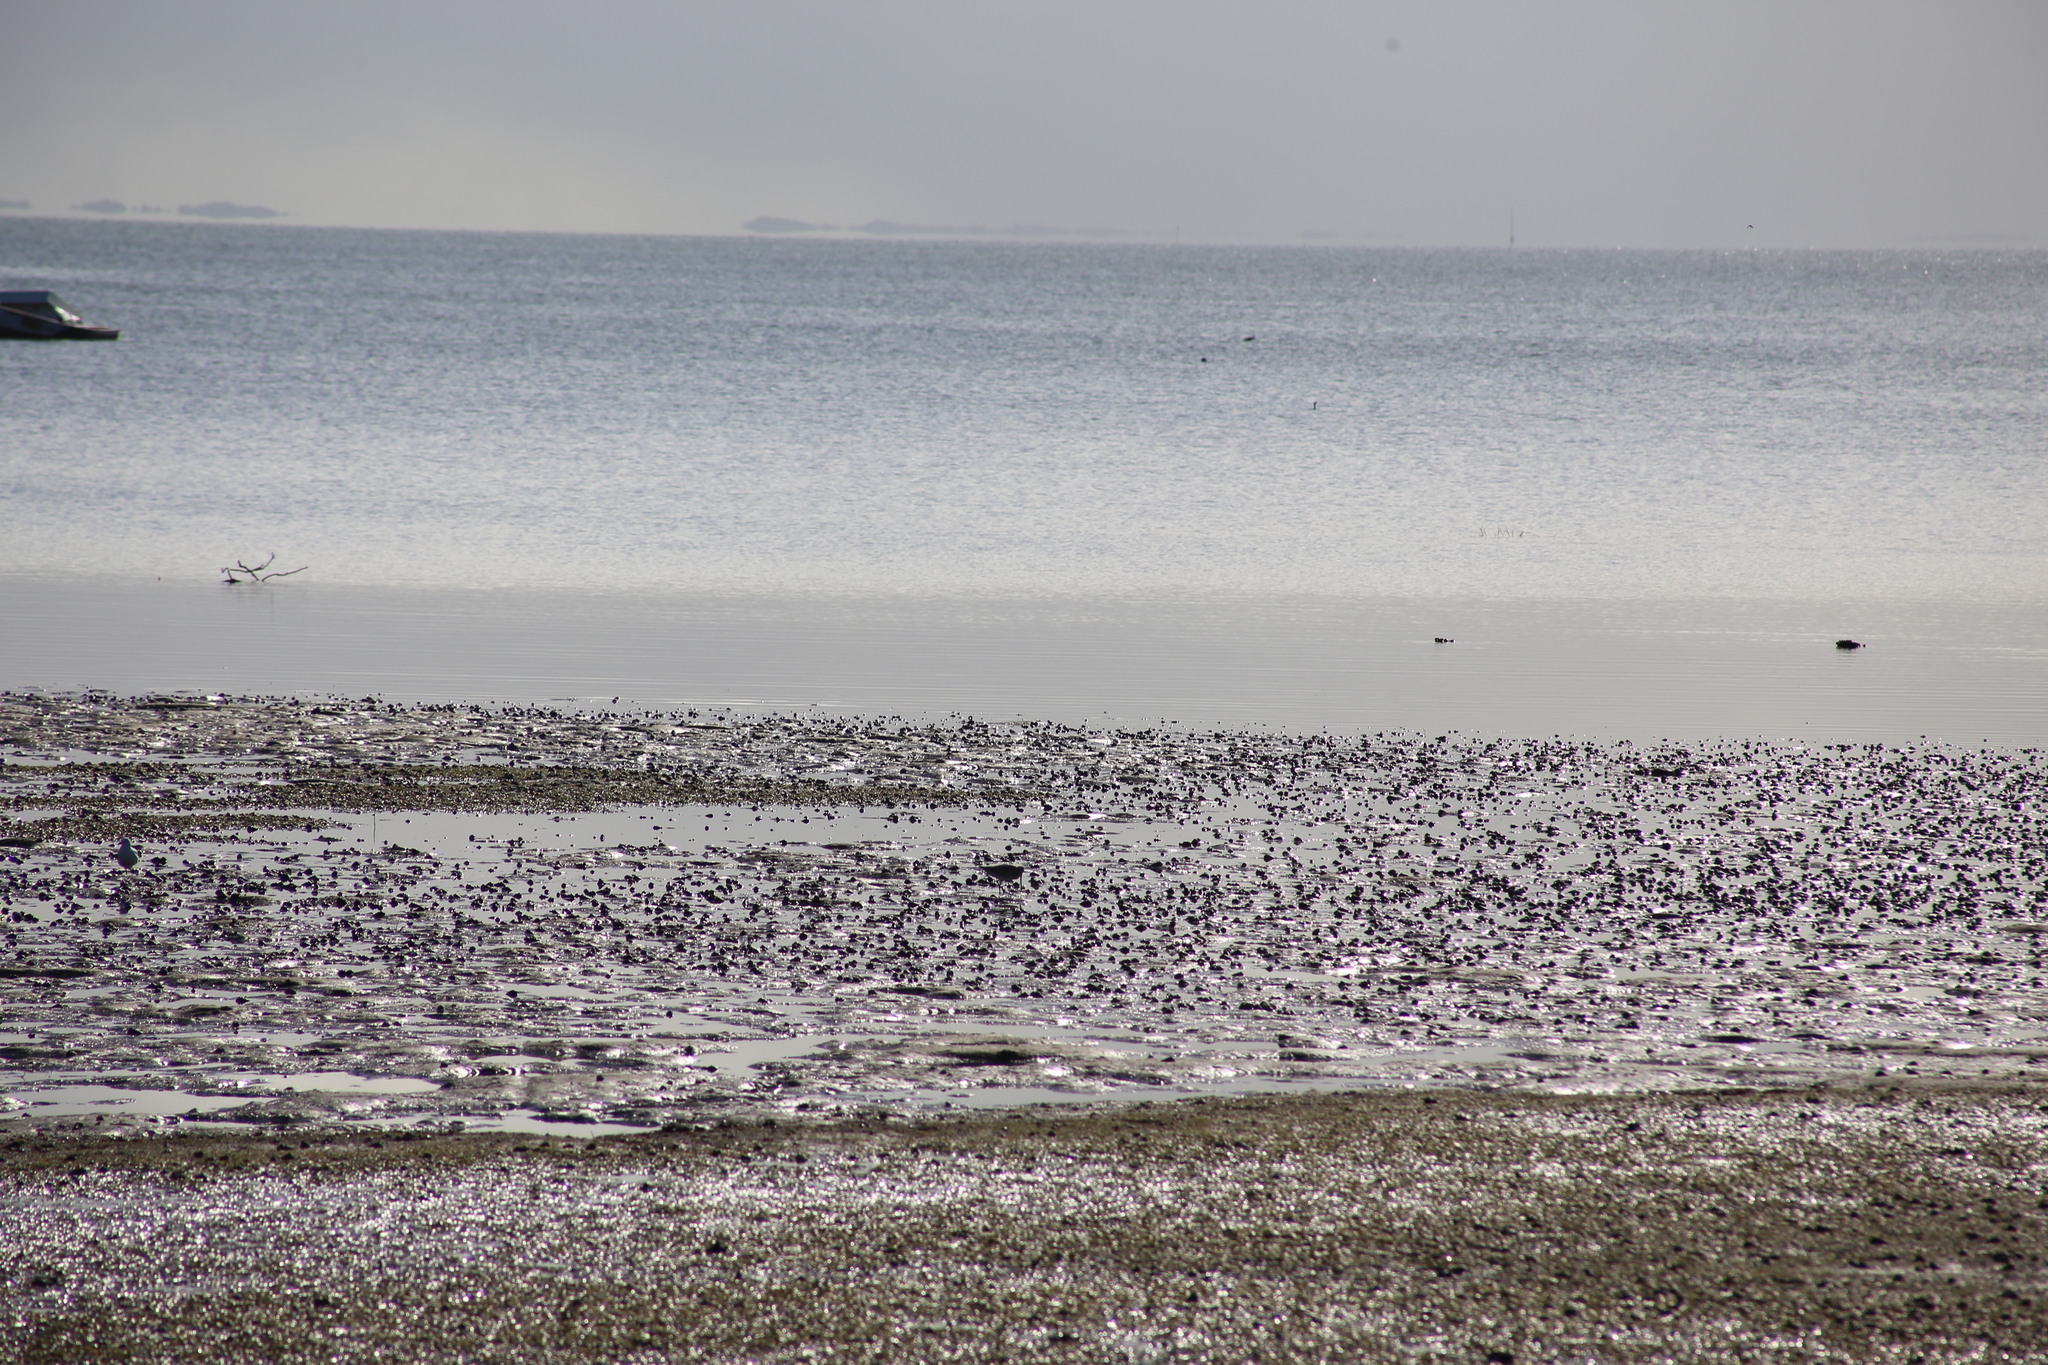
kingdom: Animalia
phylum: Chordata
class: Aves
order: Charadriiformes
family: Scolopacidae
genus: Limosa
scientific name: Limosa lapponica
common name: Bar-tailed godwit
